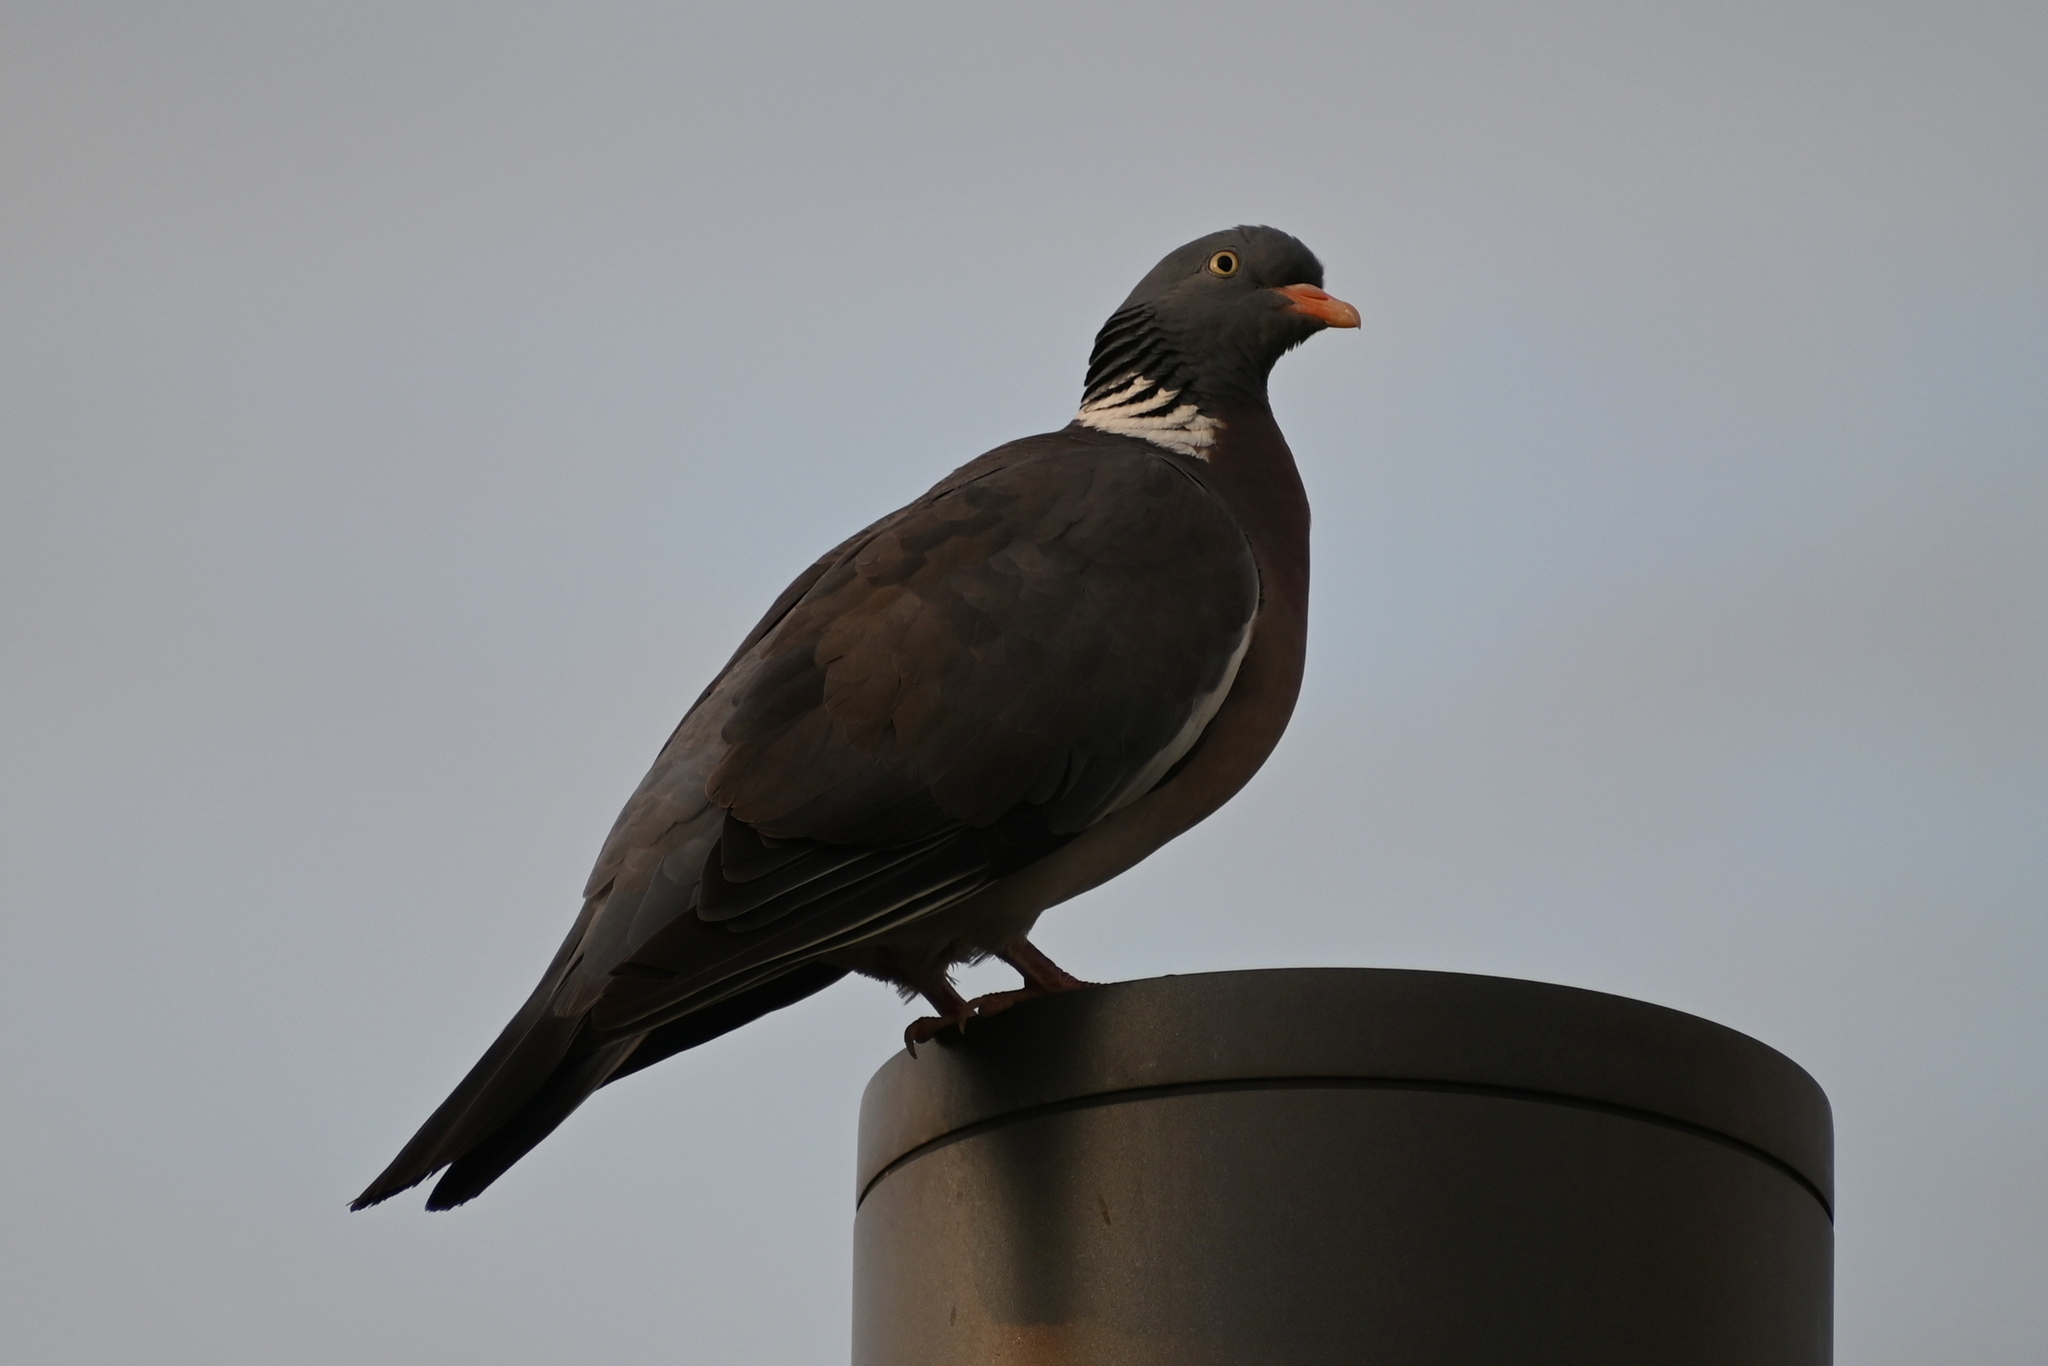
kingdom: Animalia
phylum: Chordata
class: Aves
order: Columbiformes
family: Columbidae
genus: Columba
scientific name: Columba palumbus
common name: Common wood pigeon
